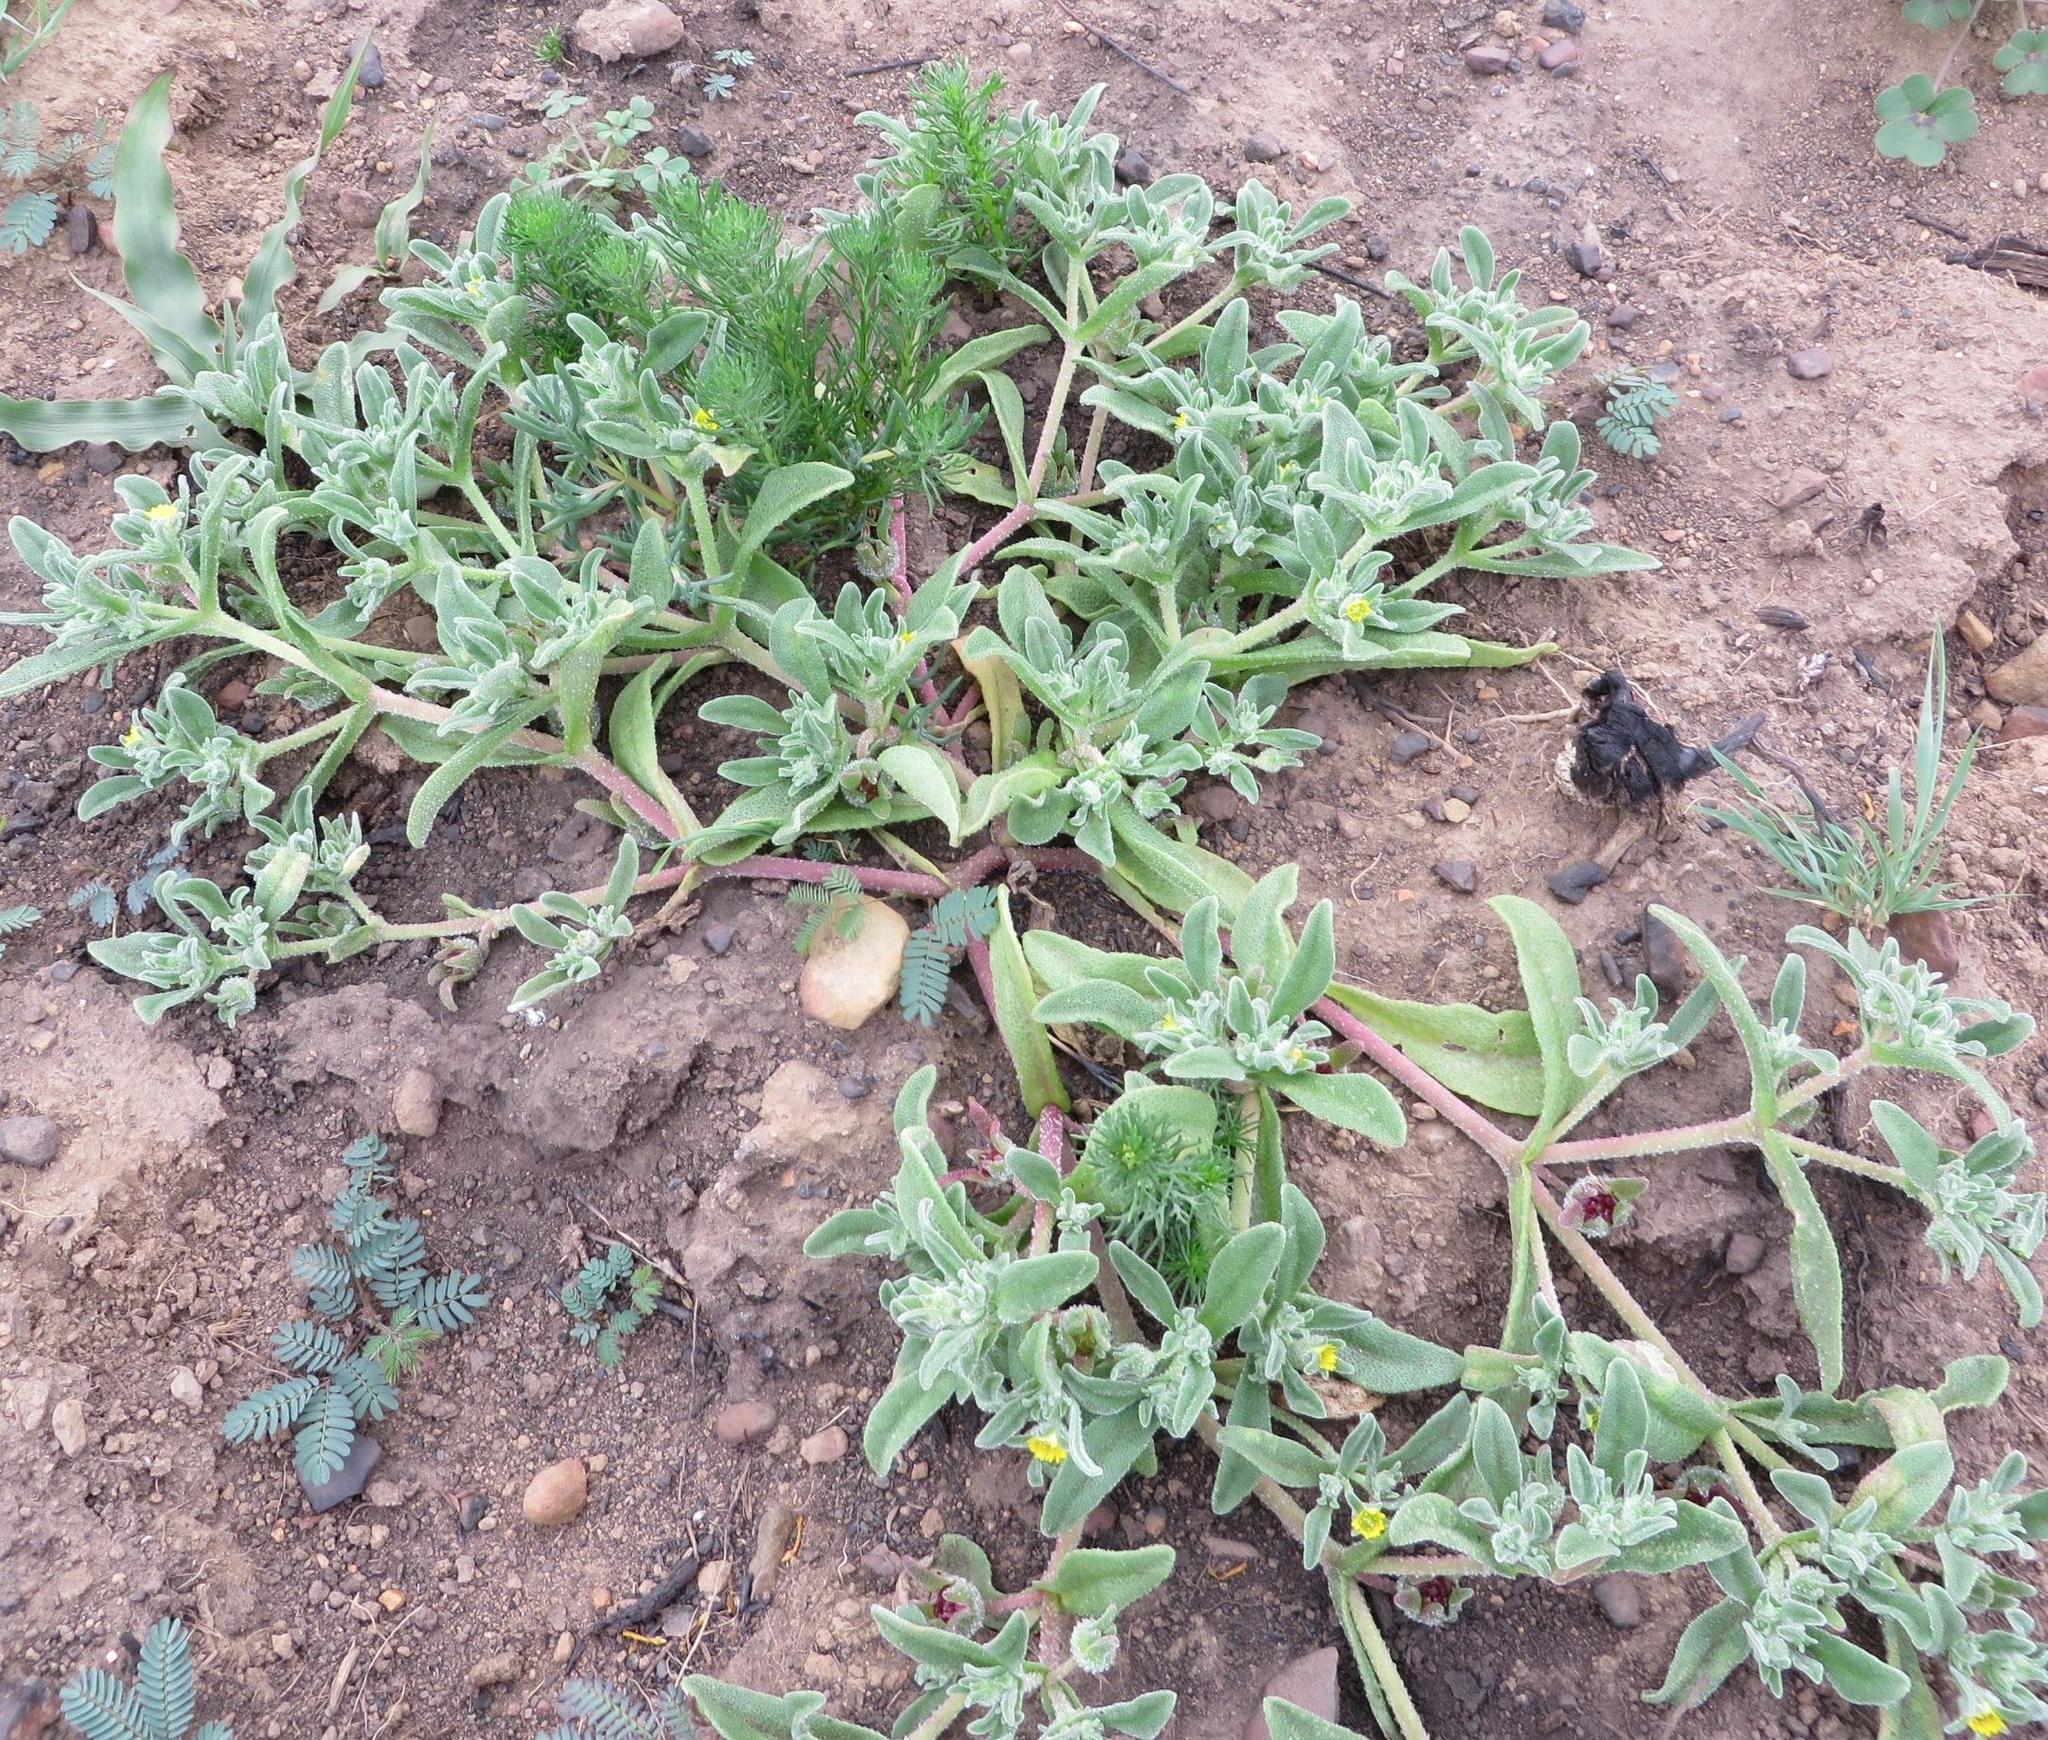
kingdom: Plantae
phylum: Tracheophyta
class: Magnoliopsida
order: Caryophyllales
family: Aizoaceae
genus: Cleretum
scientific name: Cleretum papulosum
